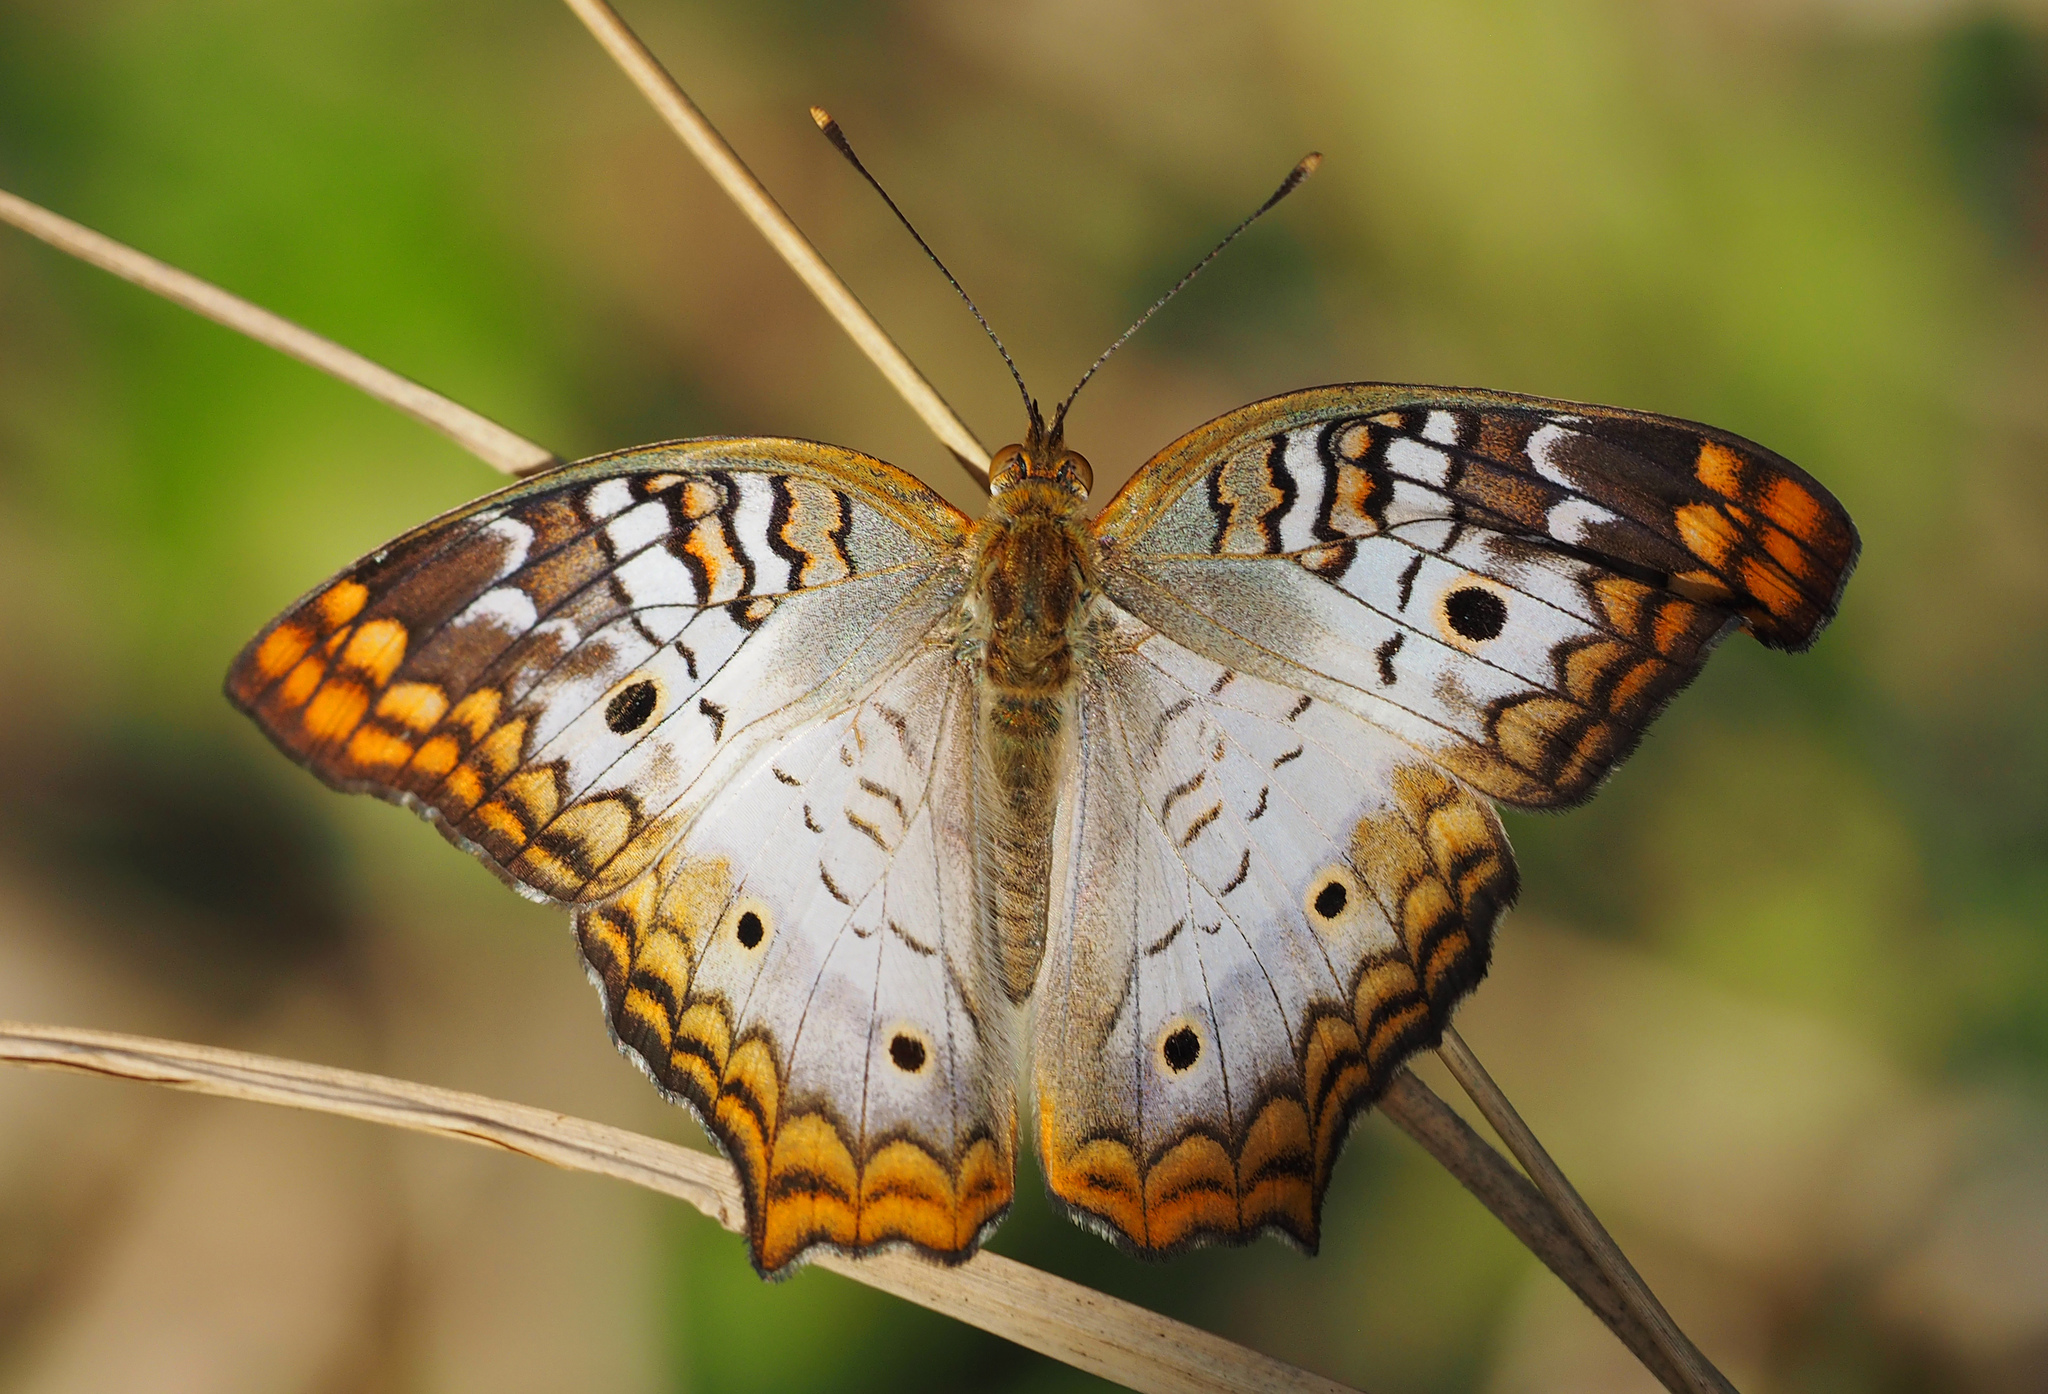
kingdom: Animalia
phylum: Arthropoda
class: Insecta
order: Lepidoptera
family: Nymphalidae
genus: Anartia
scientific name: Anartia jatrophae
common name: White peacock
